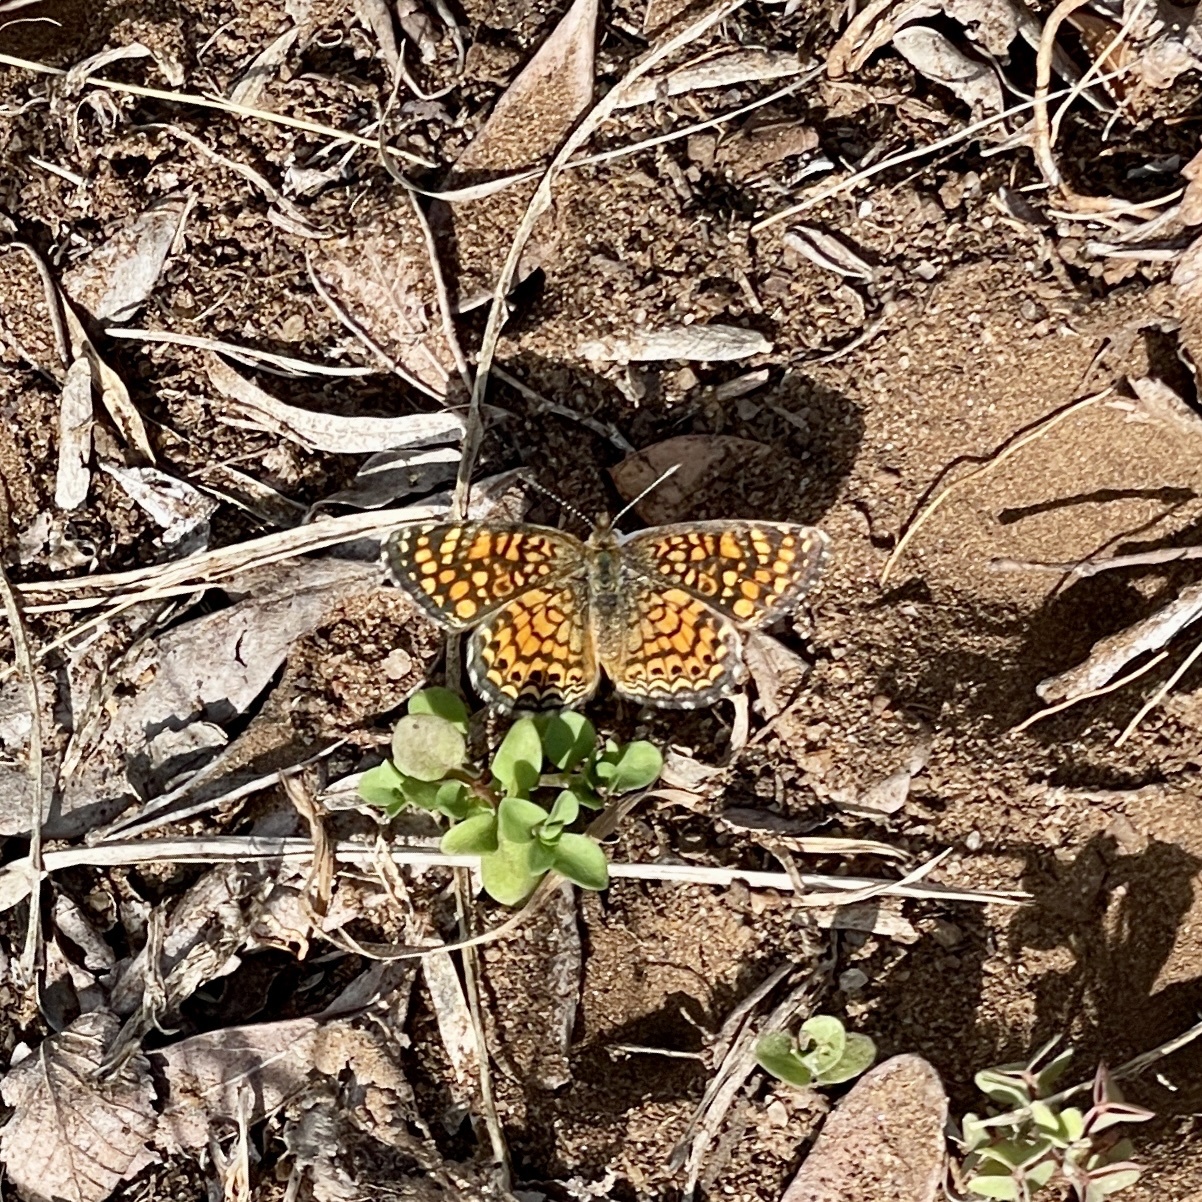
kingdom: Animalia
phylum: Arthropoda
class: Insecta
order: Lepidoptera
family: Nymphalidae
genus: Phyciodes
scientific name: Phyciodes vesta
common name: Vesta crescent
